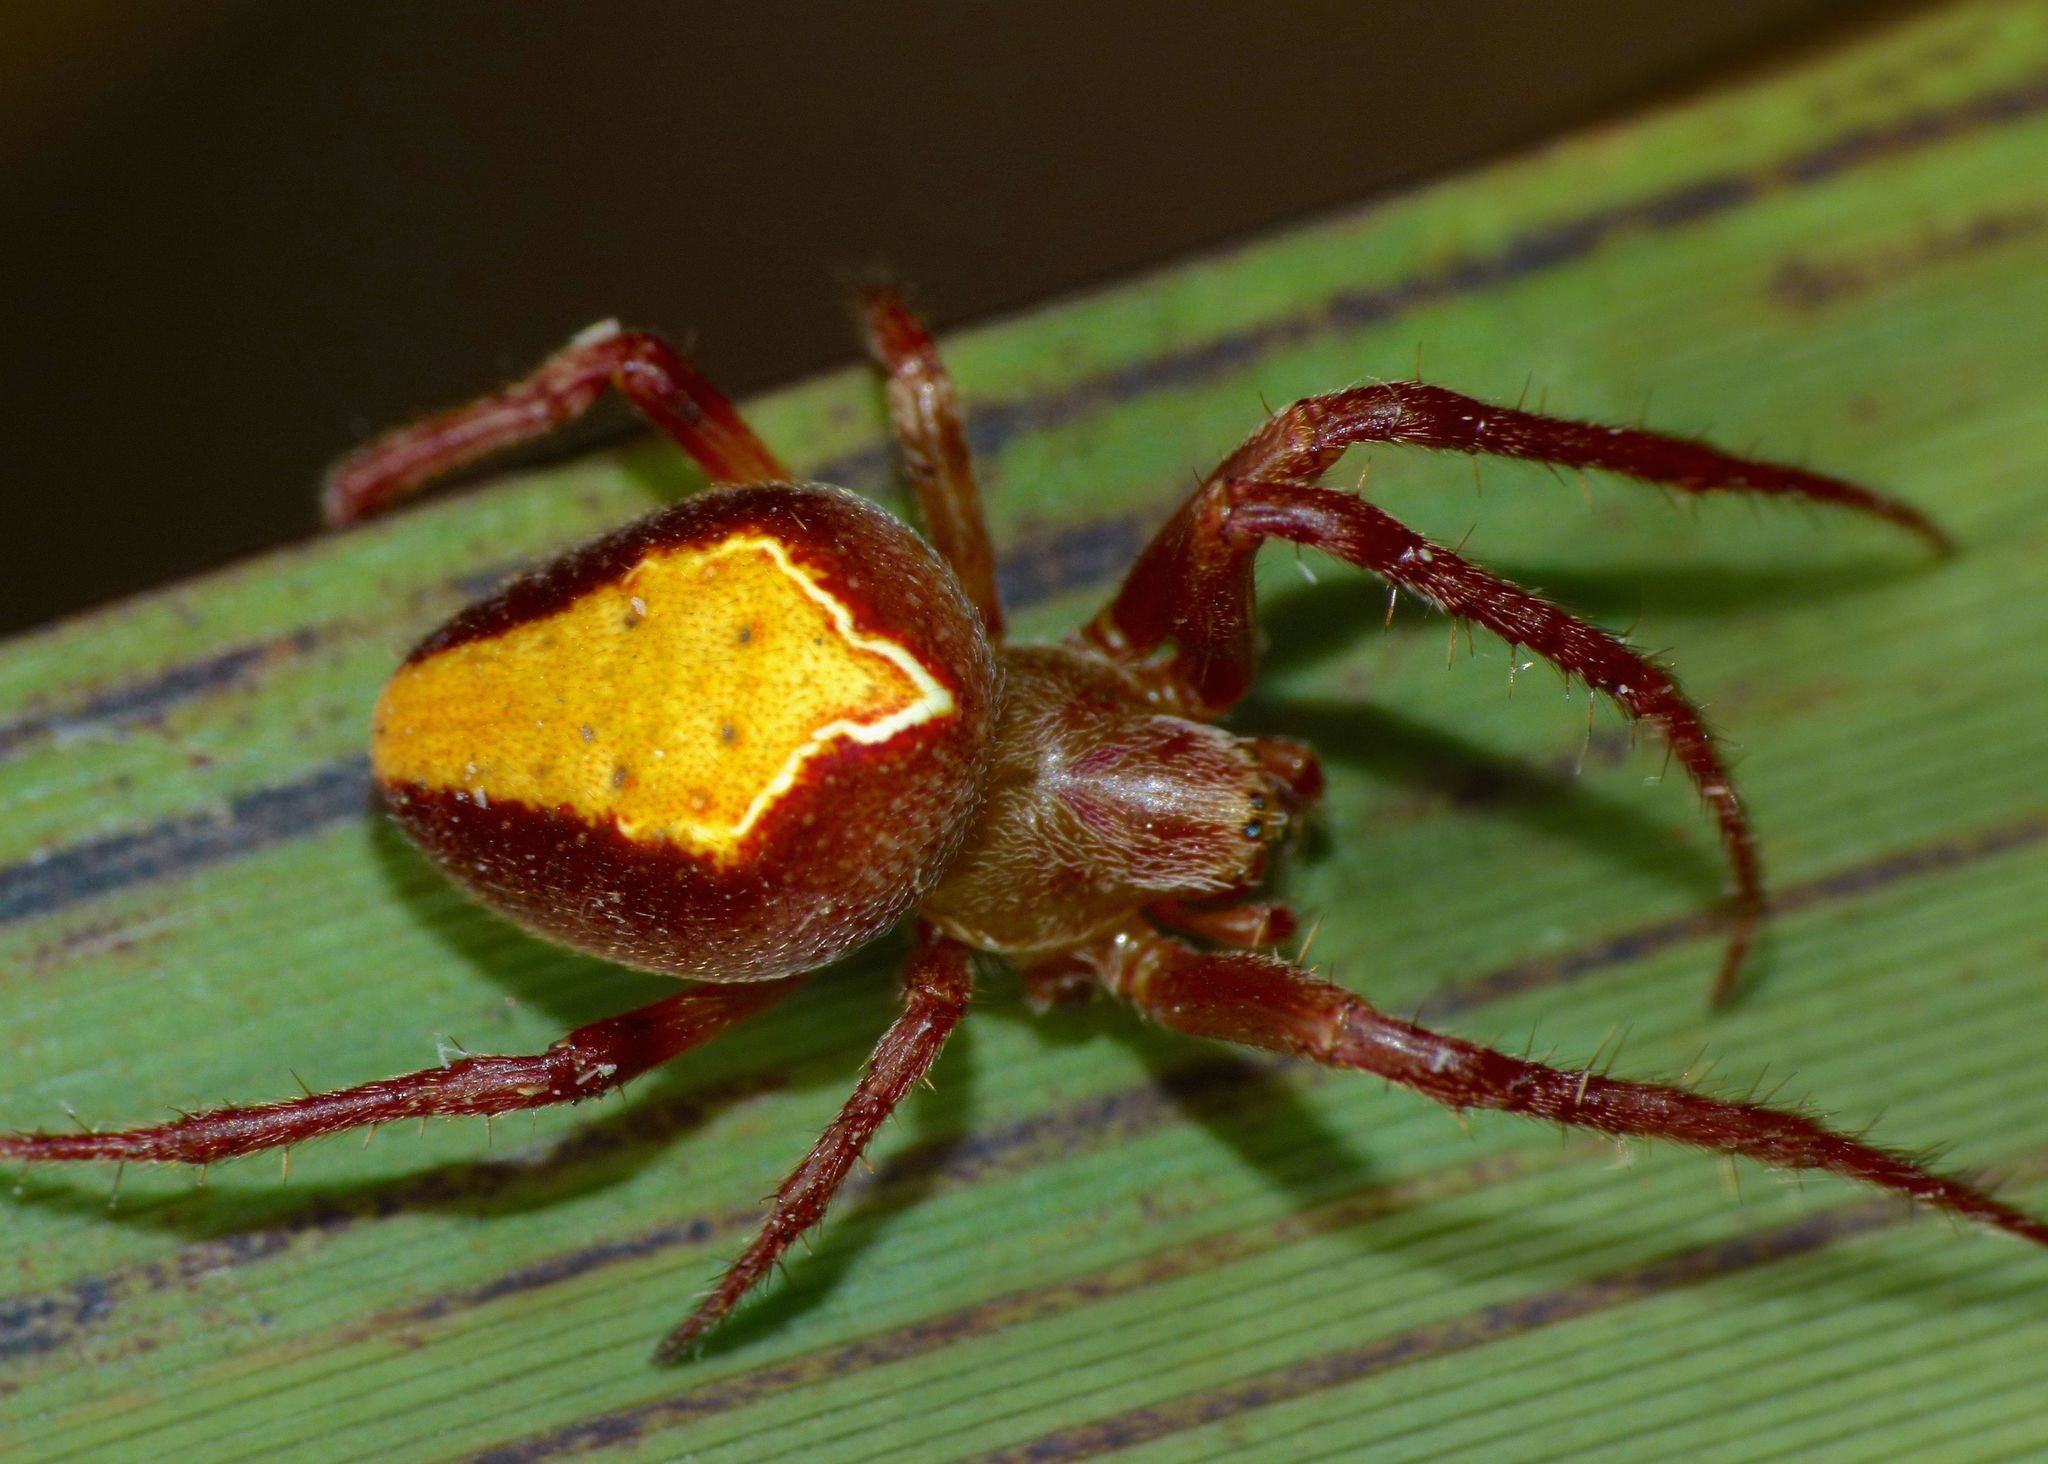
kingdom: Animalia
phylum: Arthropoda
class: Arachnida
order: Araneae
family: Araneidae
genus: Colaranea
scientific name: Colaranea viriditas
